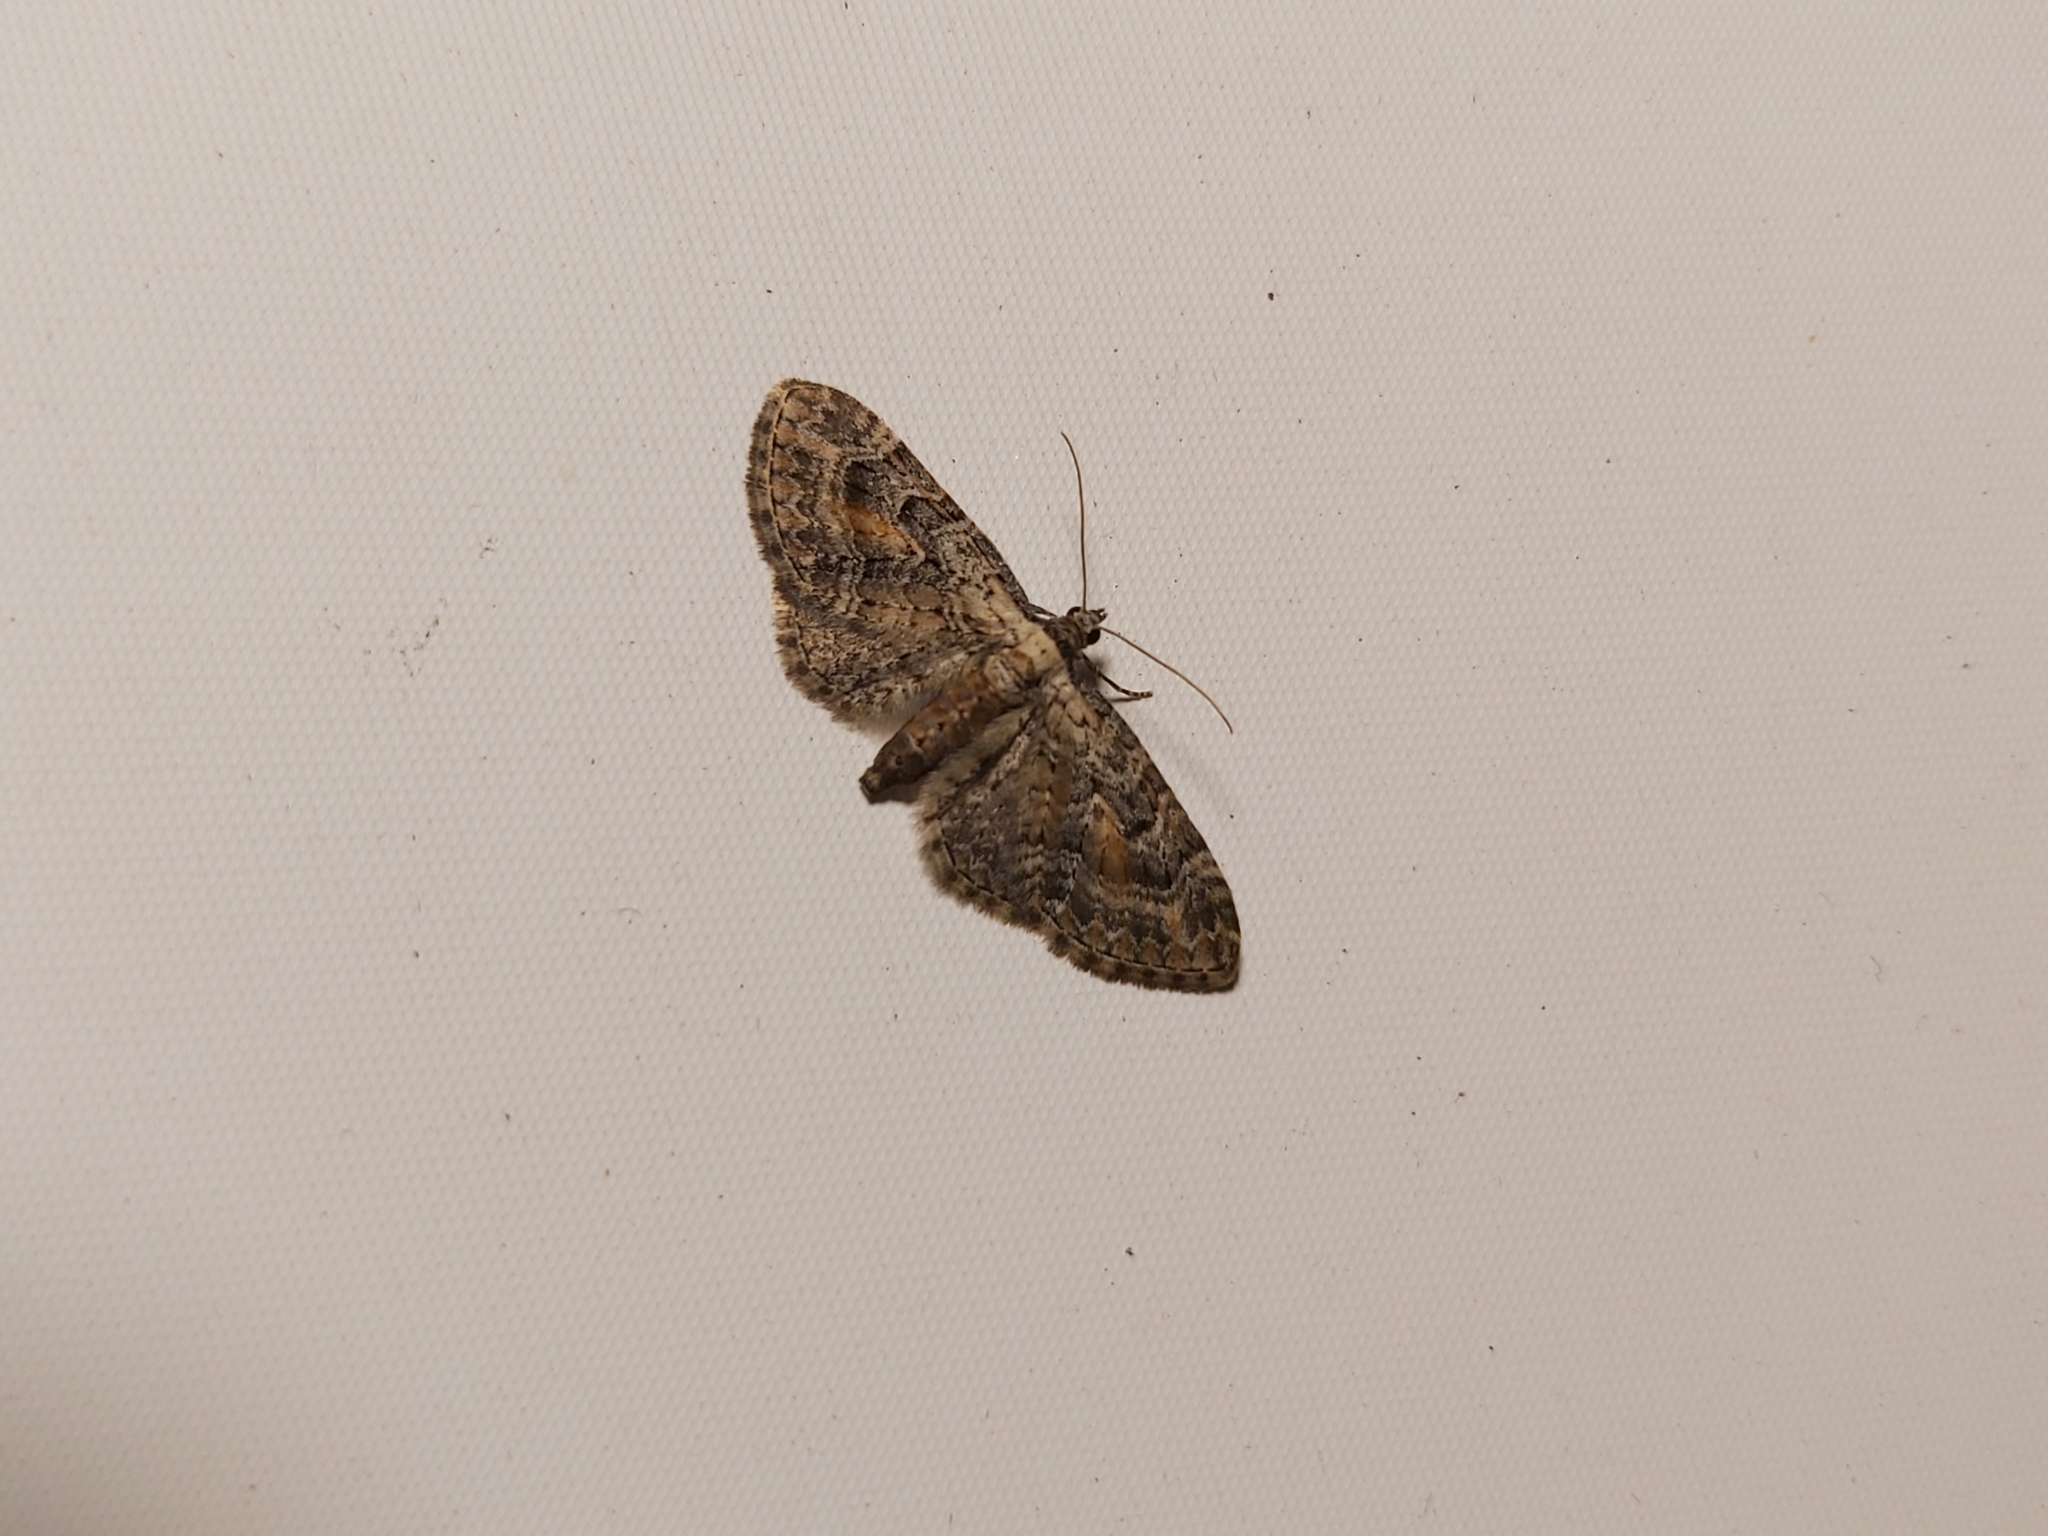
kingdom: Animalia
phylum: Arthropoda
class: Insecta
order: Lepidoptera
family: Geometridae
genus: Eupithecia
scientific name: Eupithecia icterata
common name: Tawny speckled pug
